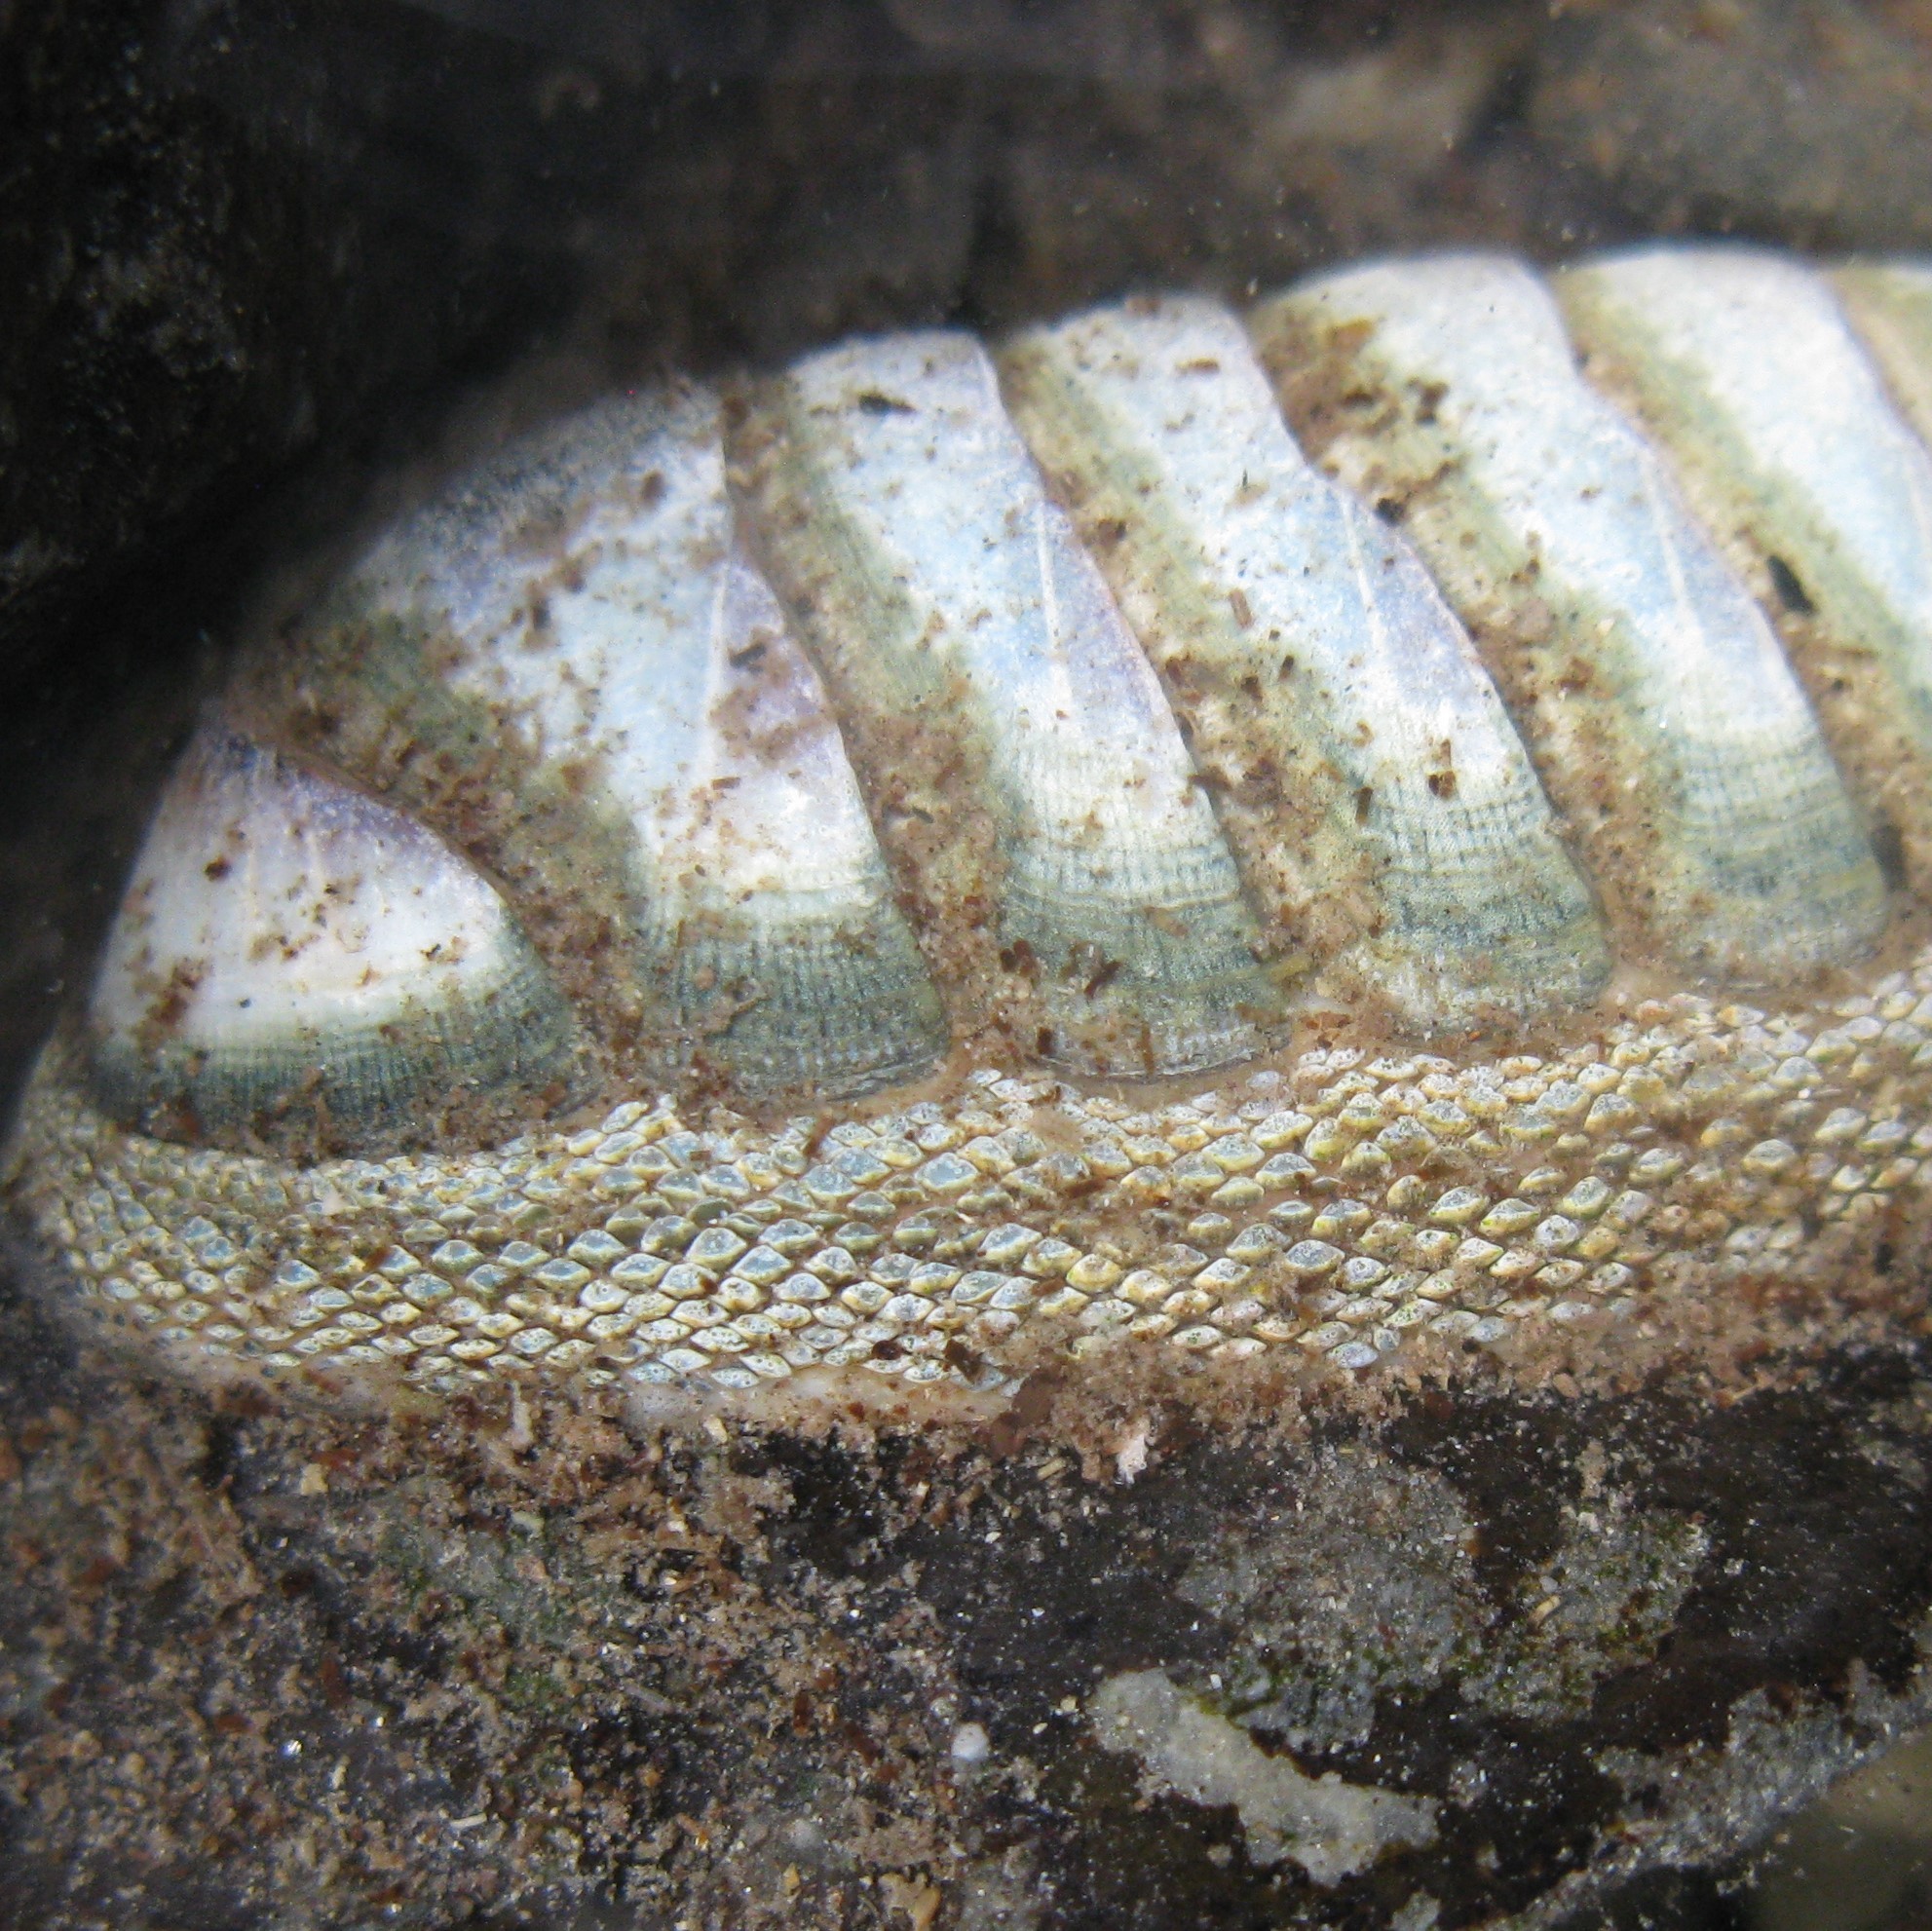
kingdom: Animalia
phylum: Mollusca
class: Polyplacophora
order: Chitonida
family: Chitonidae
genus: Chiton
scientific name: Chiton glaucus
